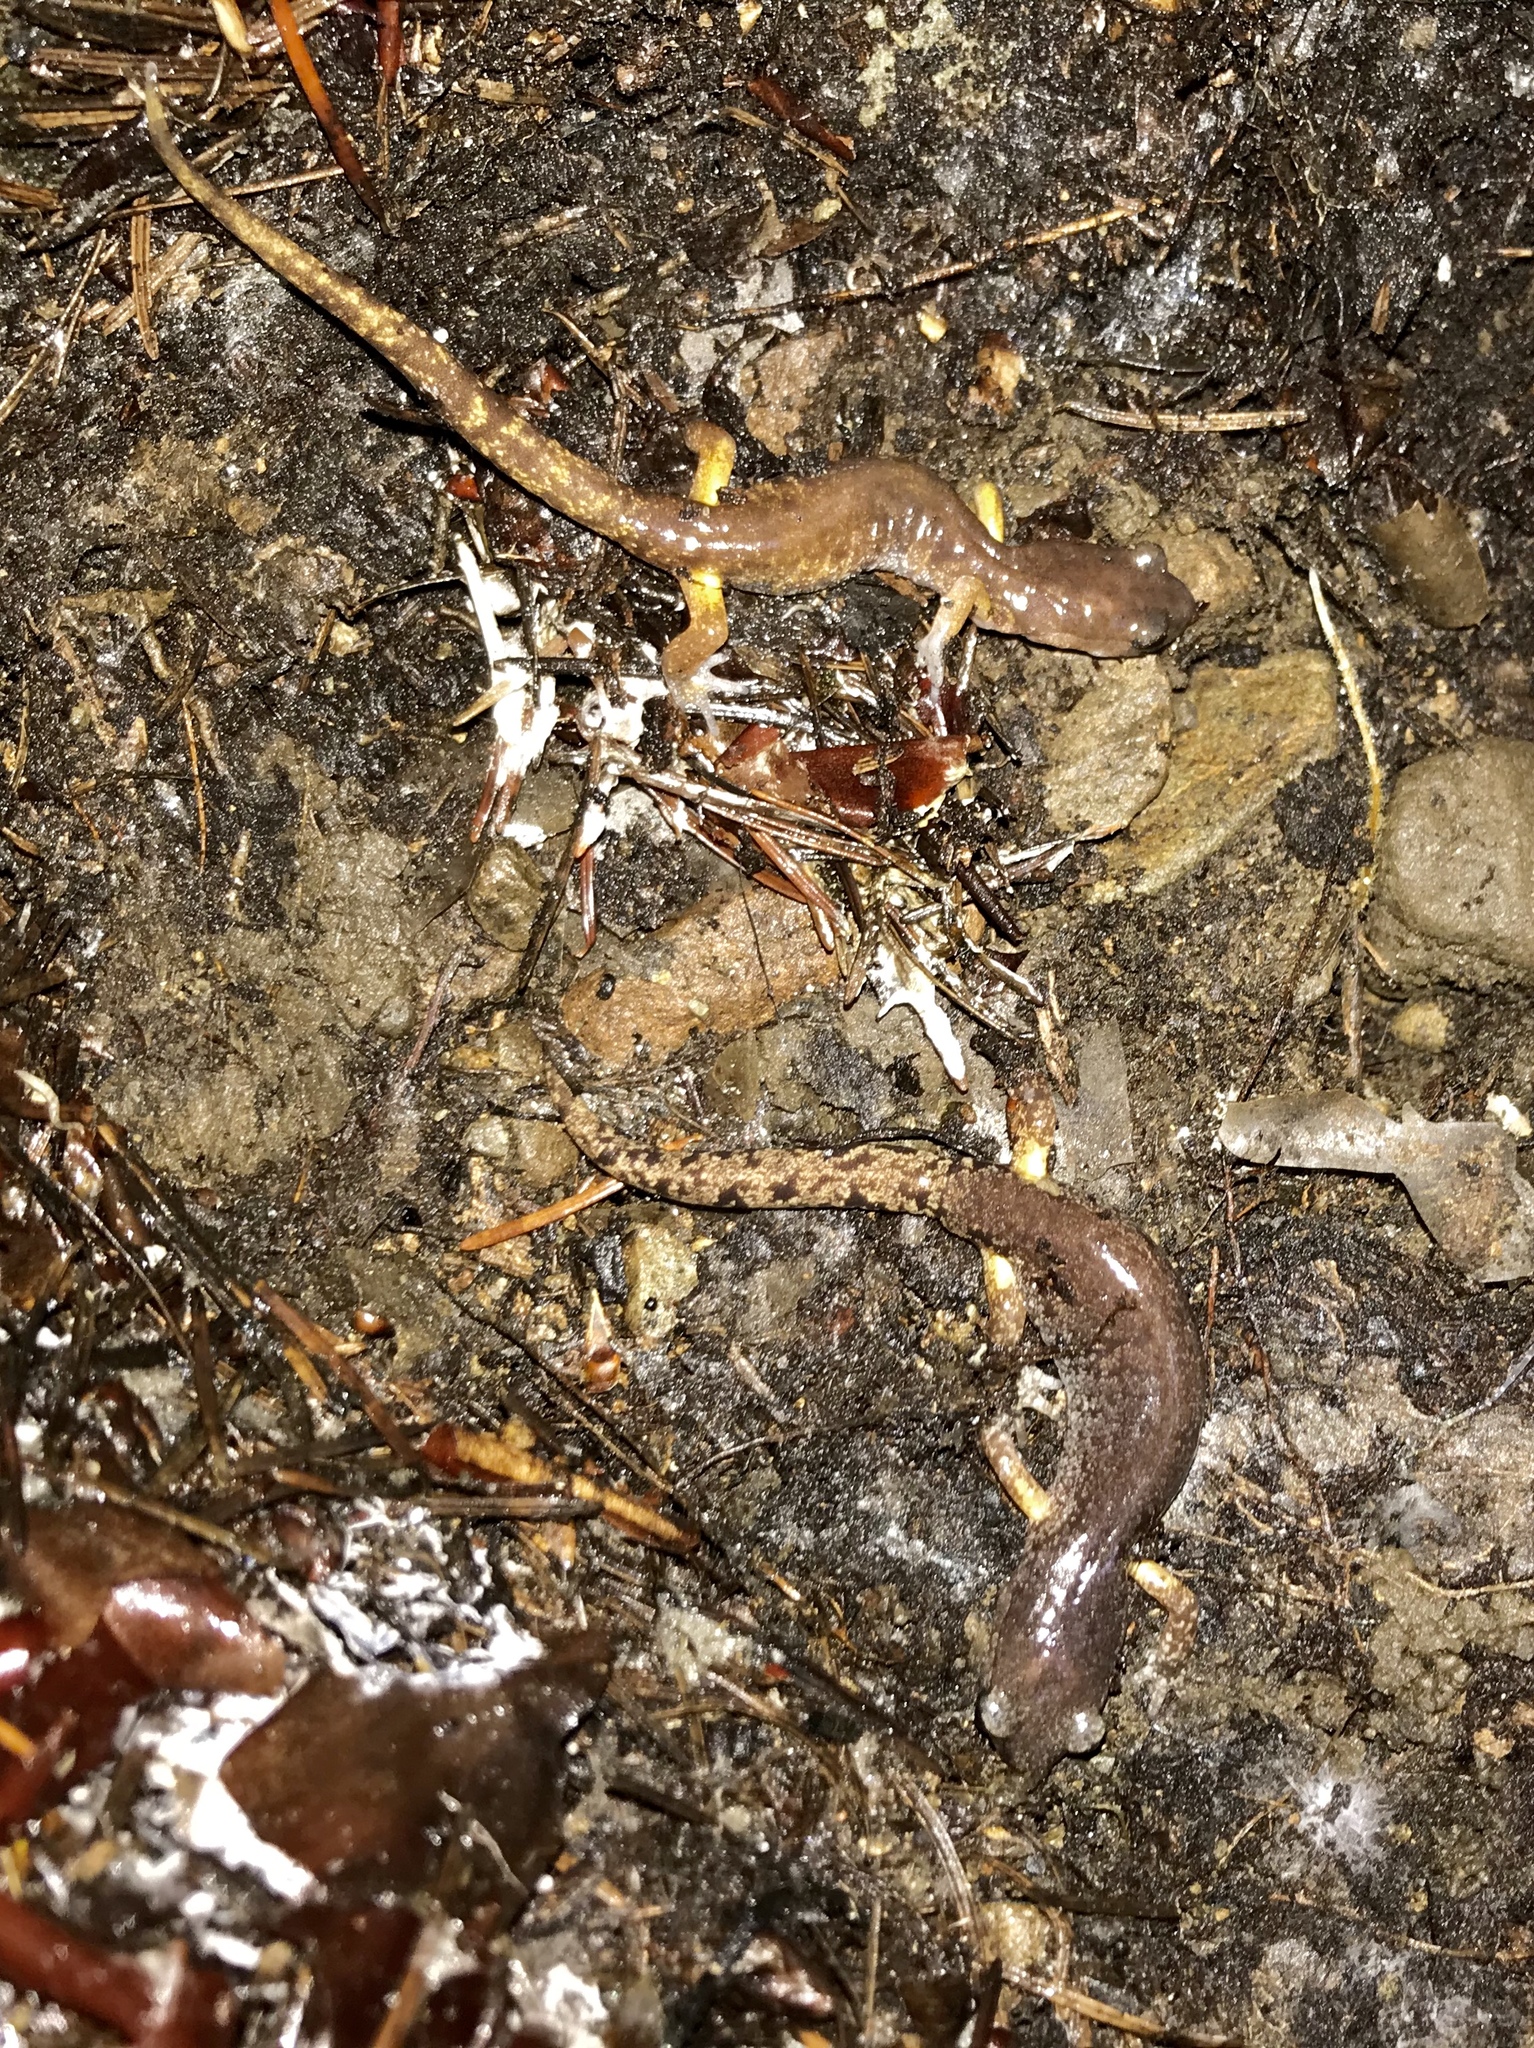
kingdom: Animalia
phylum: Chordata
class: Amphibia
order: Caudata
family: Plethodontidae
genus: Ensatina
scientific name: Ensatina eschscholtzii
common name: Ensatina
